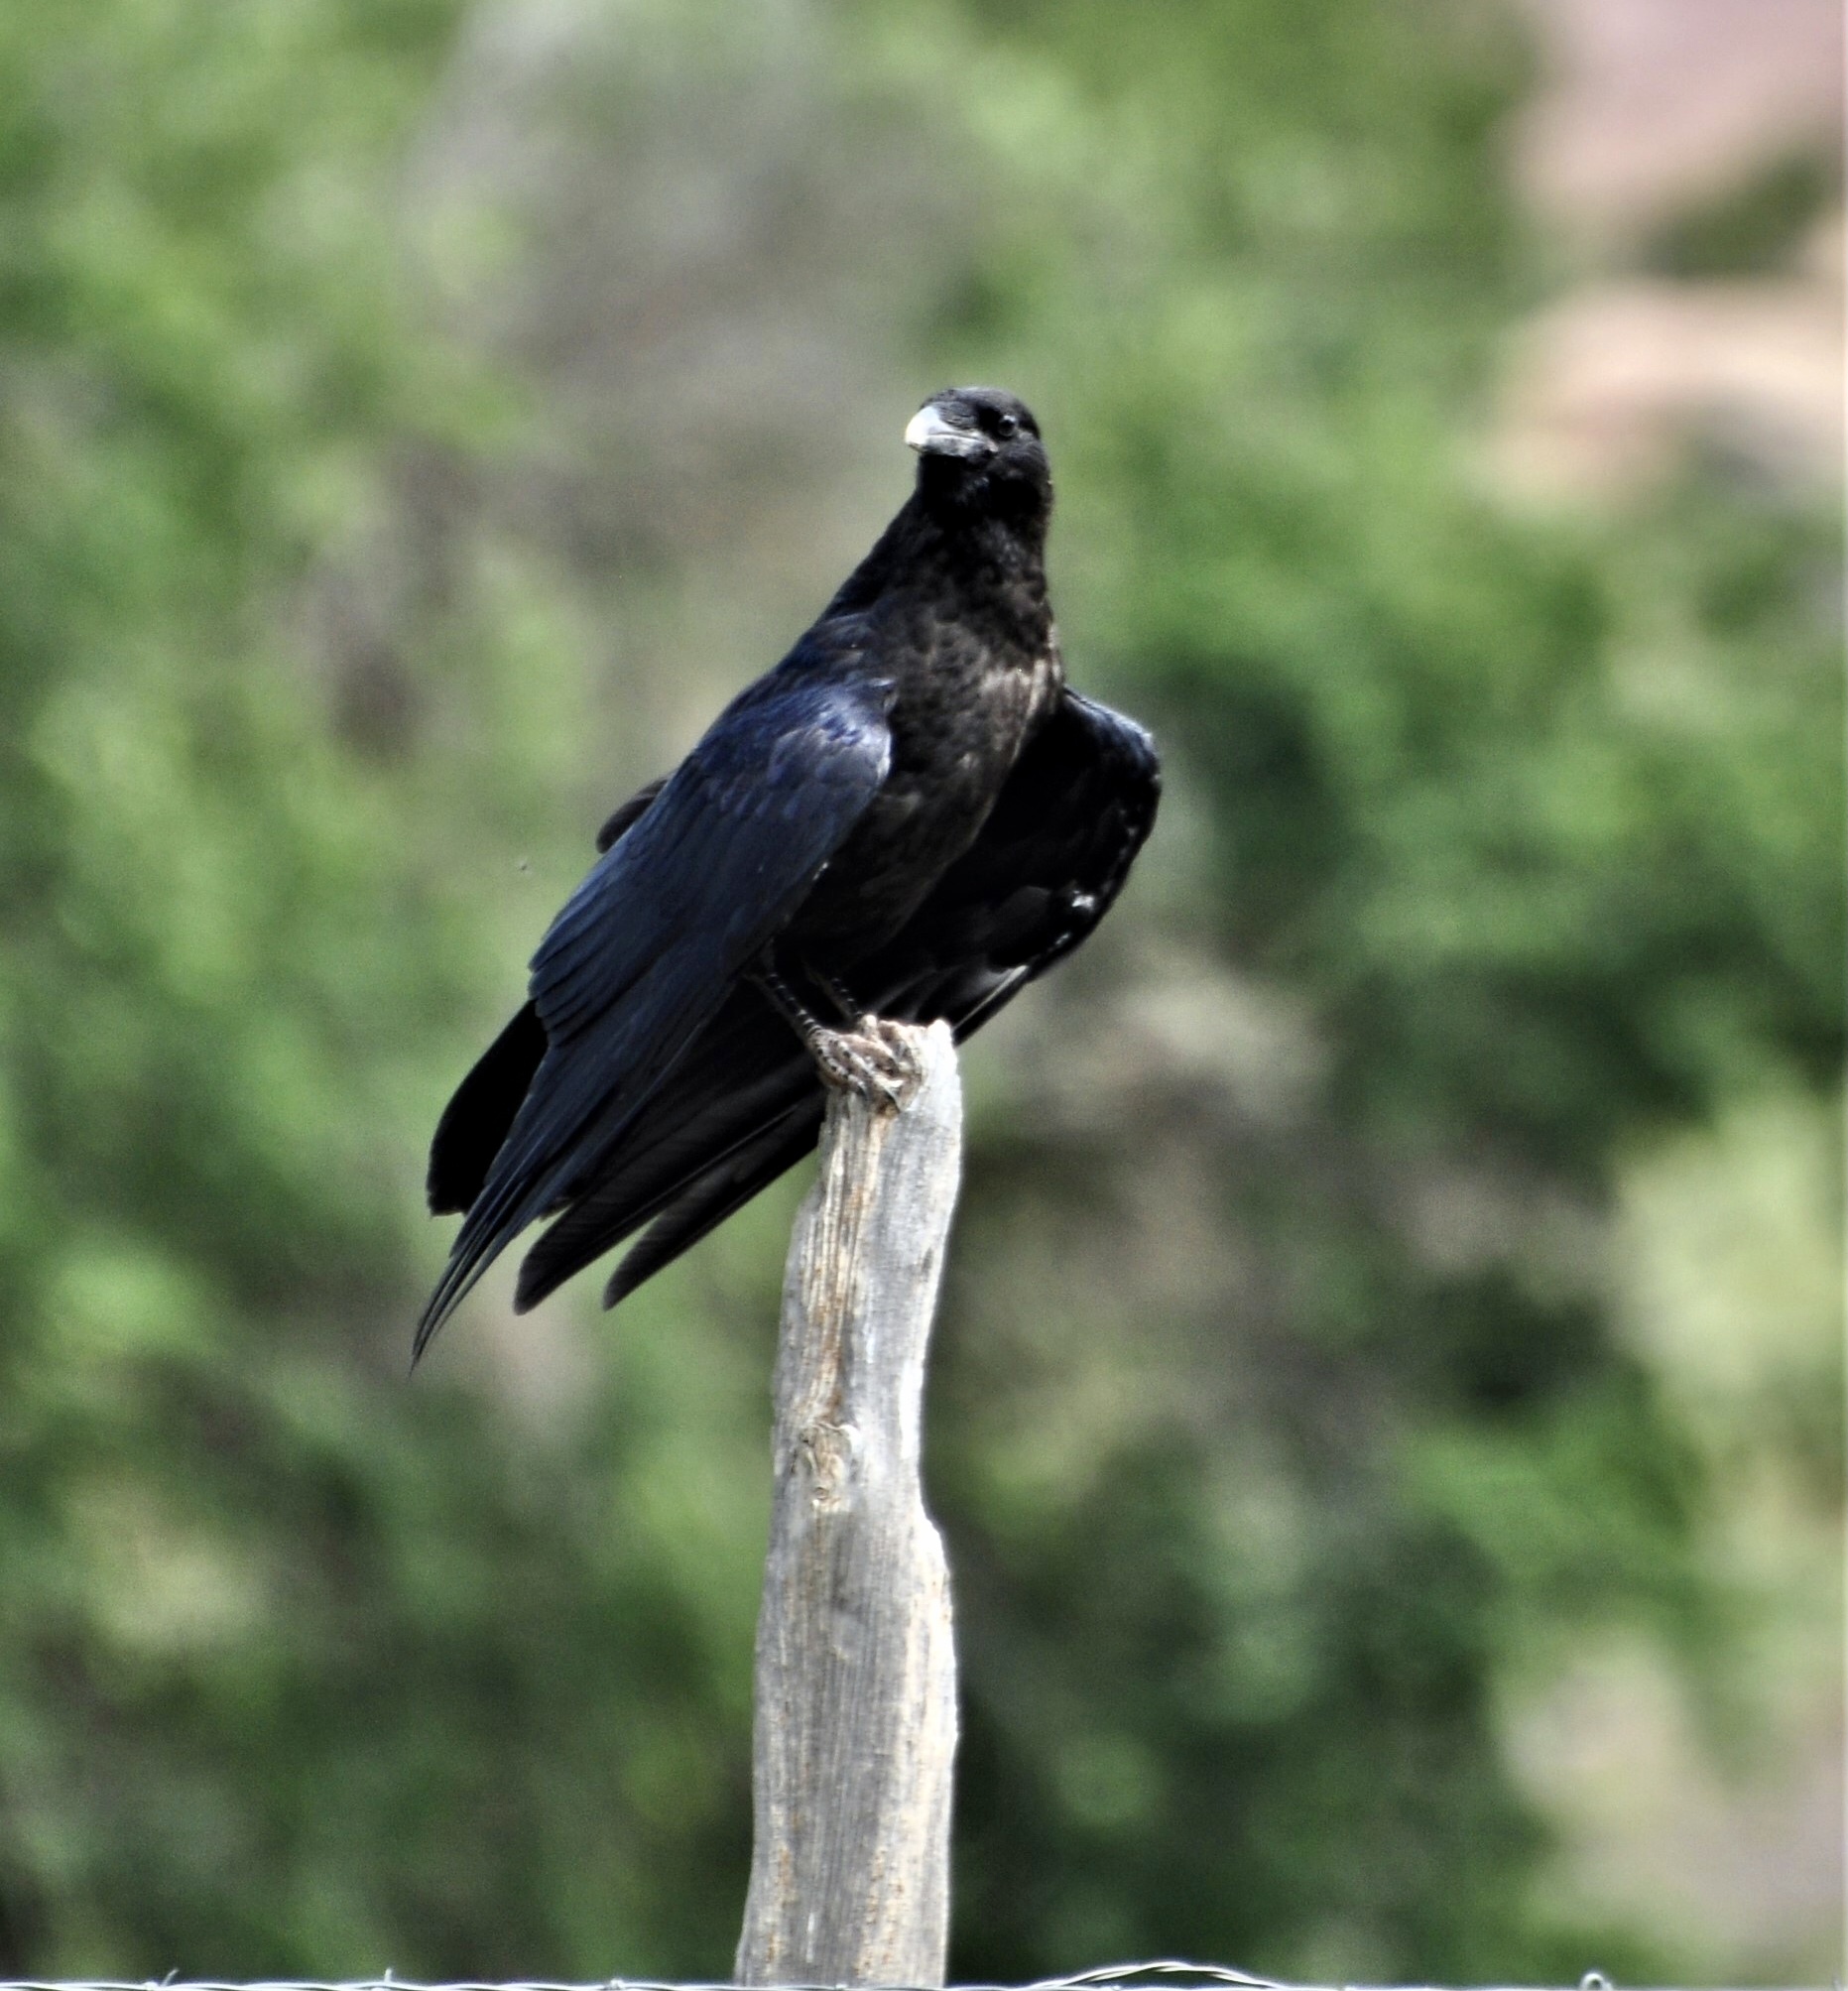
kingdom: Animalia
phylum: Chordata
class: Aves
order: Passeriformes
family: Corvidae
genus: Corvus
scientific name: Corvus corax
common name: Common raven
